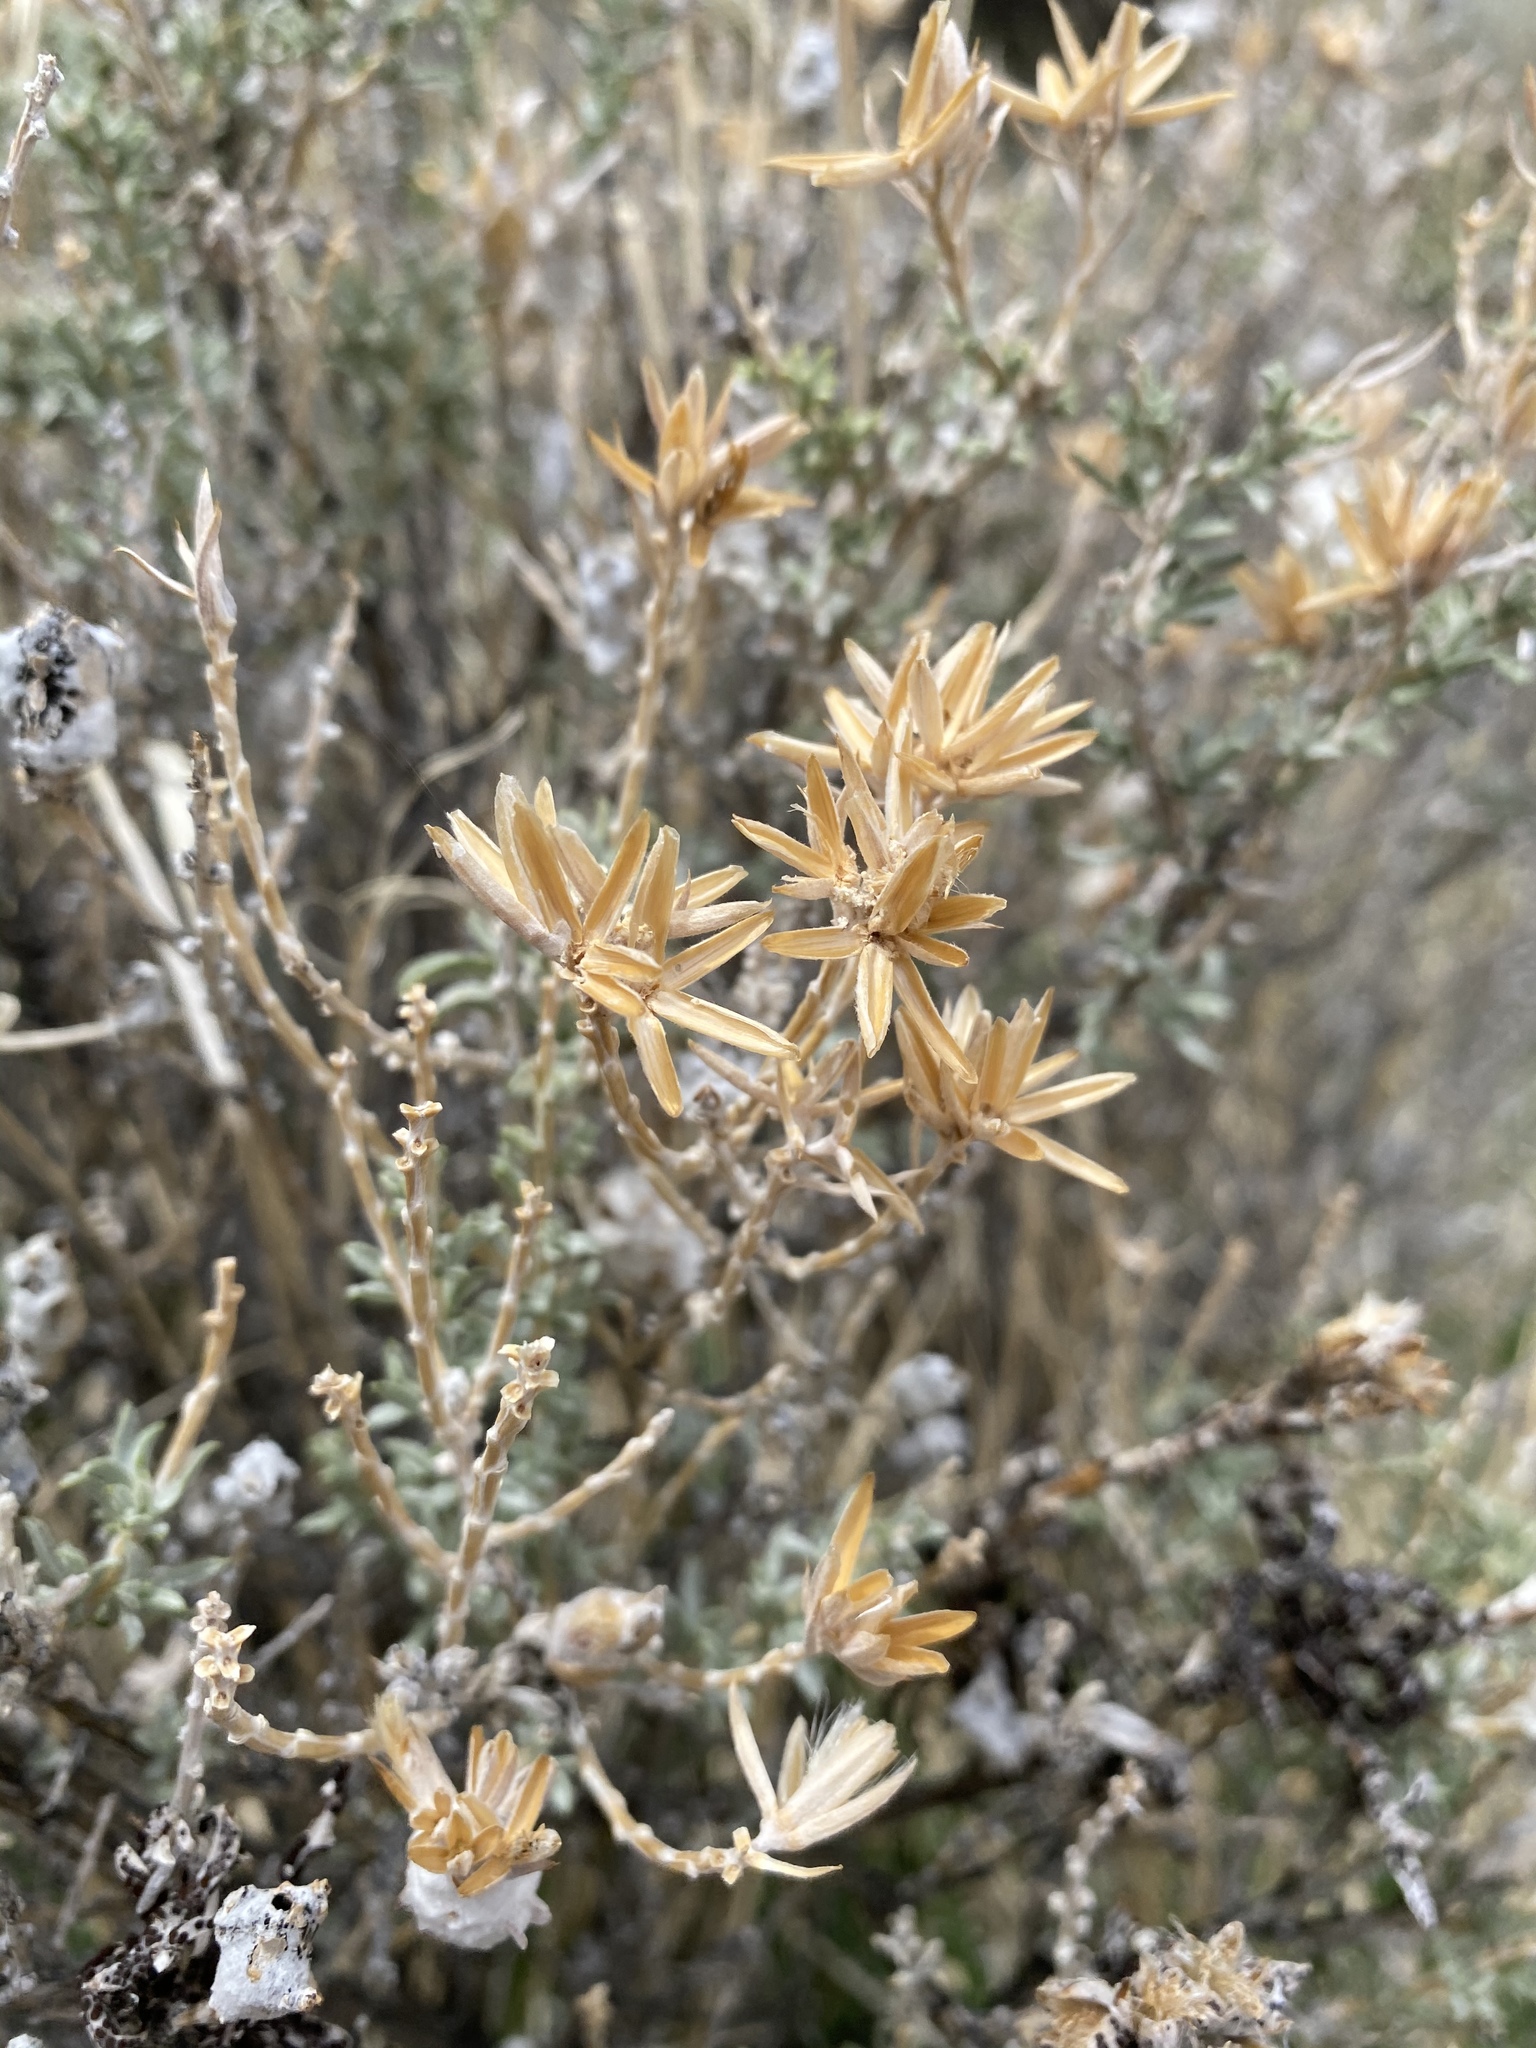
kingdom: Plantae
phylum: Tracheophyta
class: Magnoliopsida
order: Asterales
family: Asteraceae
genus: Tetradymia
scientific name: Tetradymia canescens
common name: Spineless horsebrush
